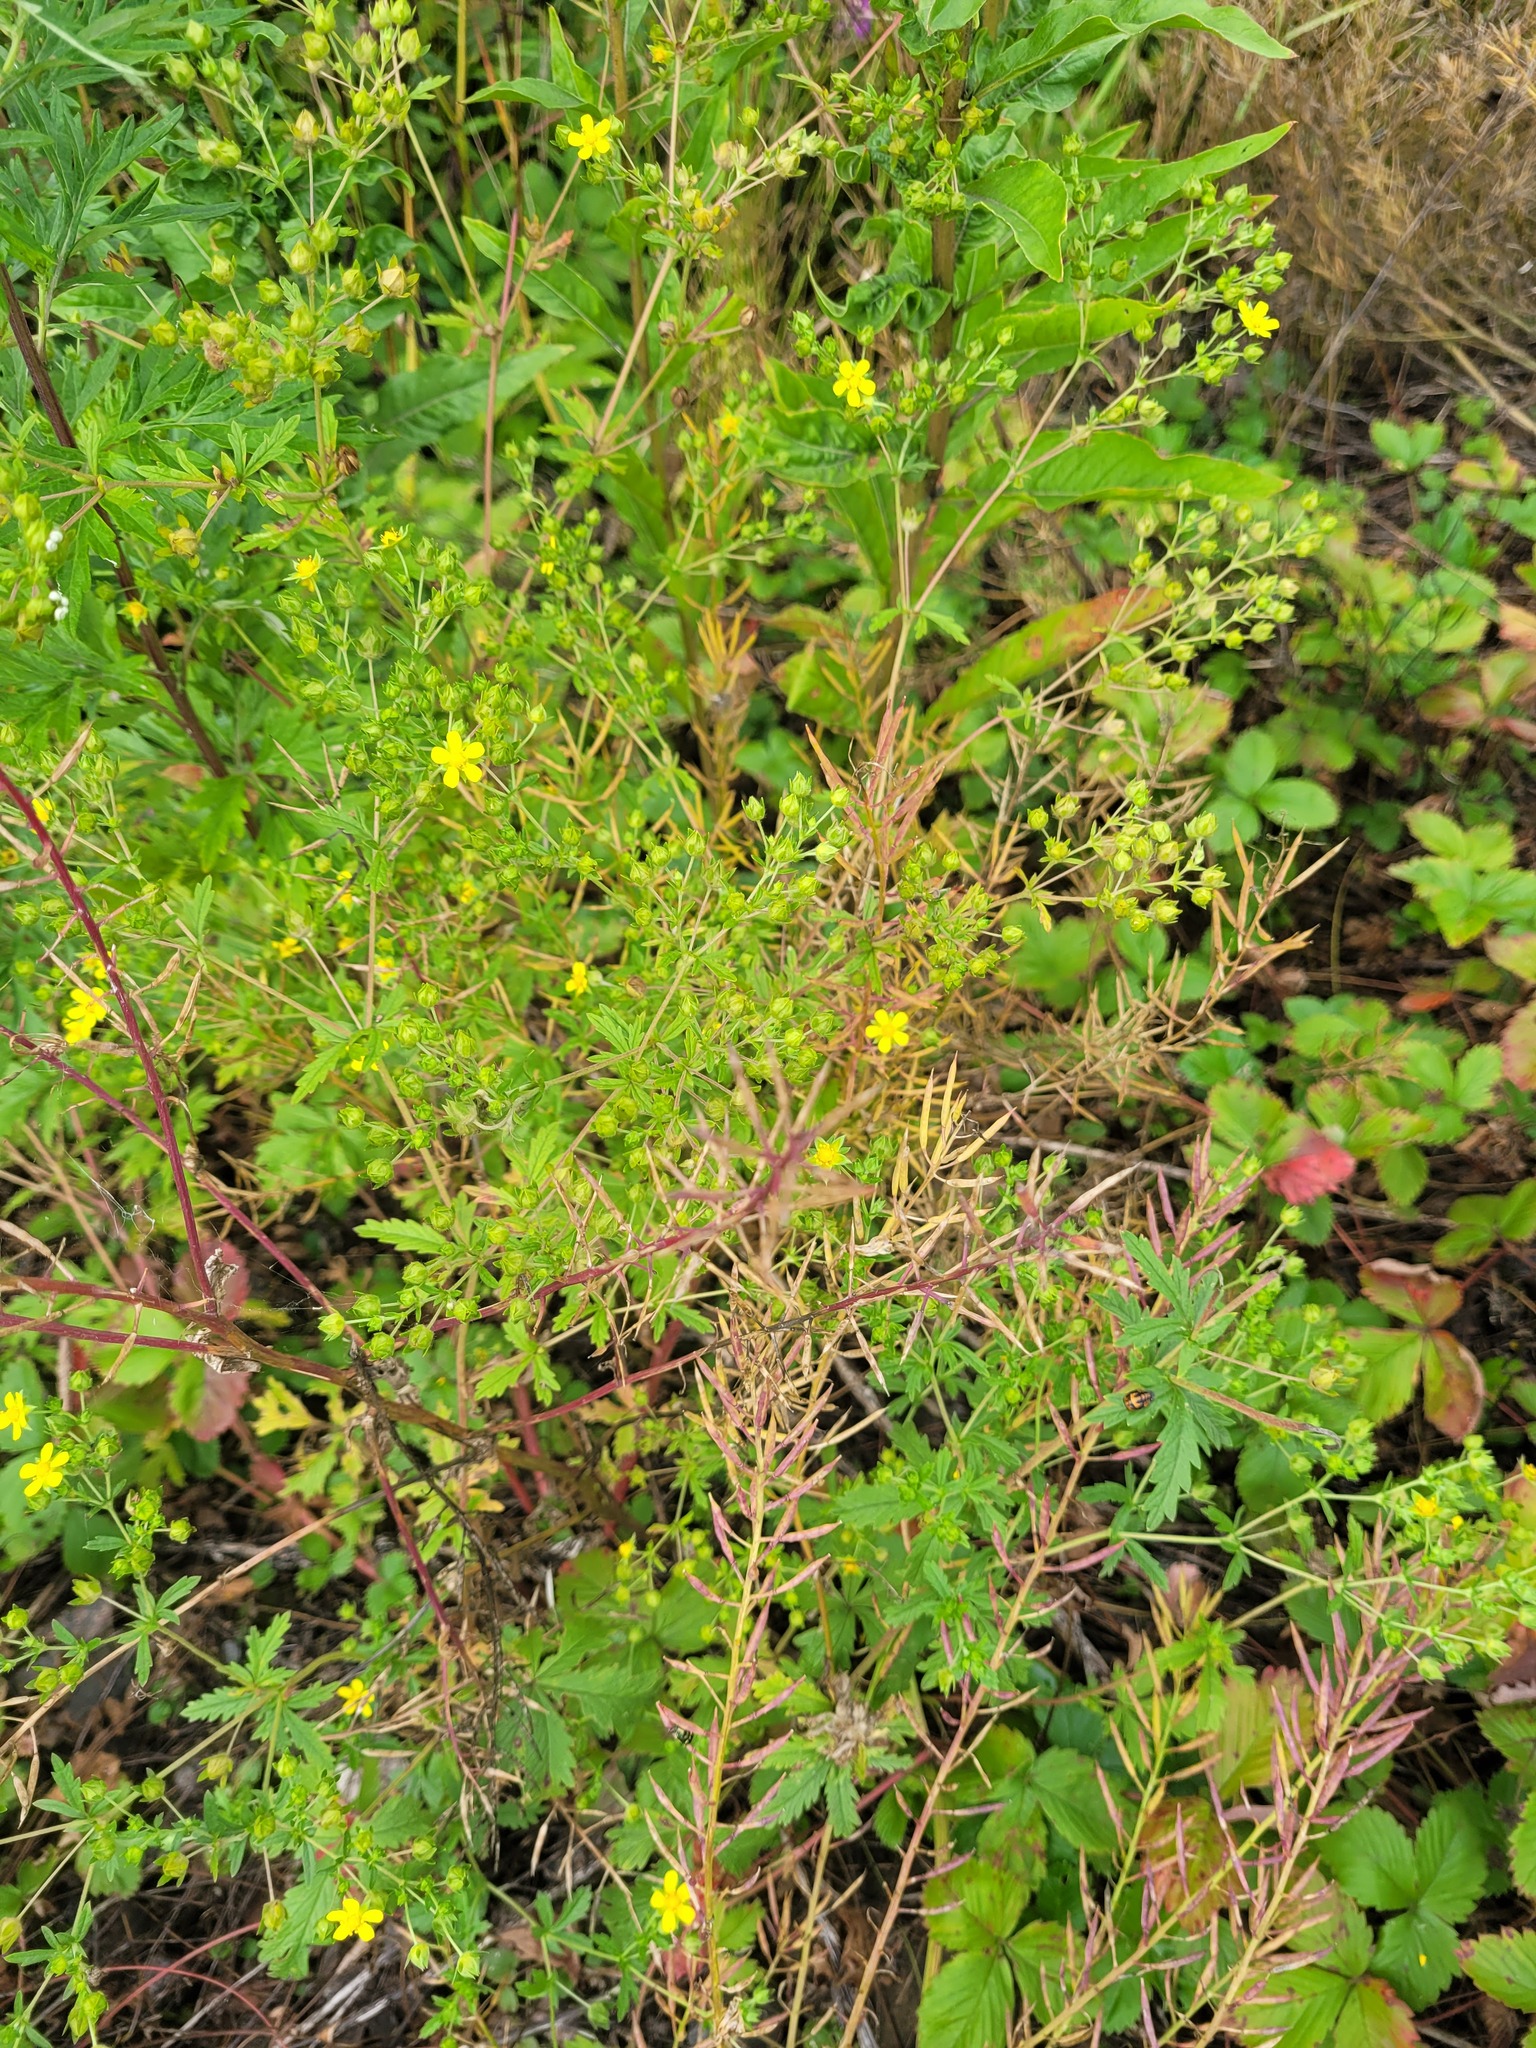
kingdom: Plantae
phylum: Tracheophyta
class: Magnoliopsida
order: Brassicales
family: Brassicaceae
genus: Barbarea
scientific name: Barbarea vulgaris
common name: Cressy-greens
